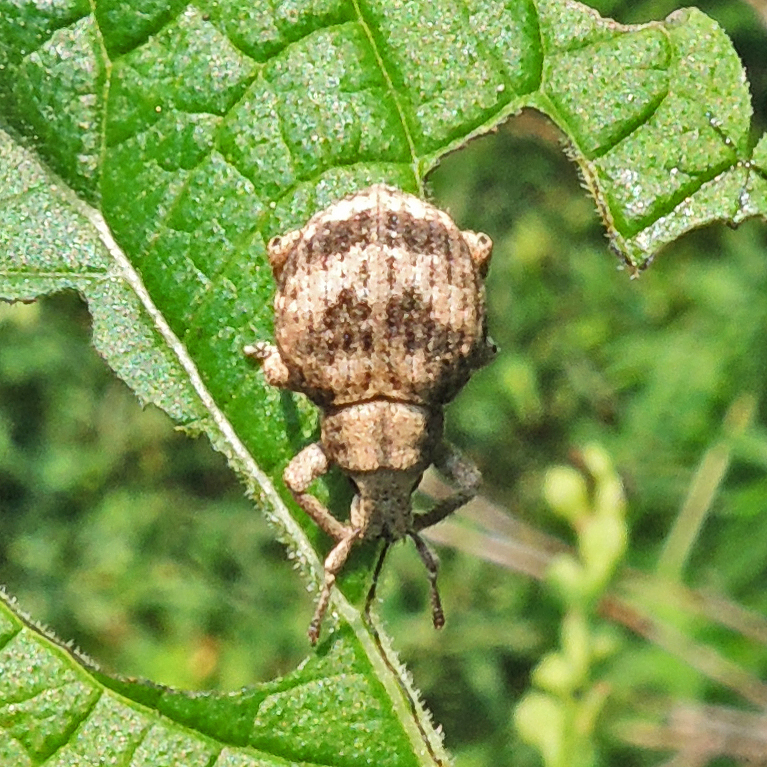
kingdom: Animalia
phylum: Arthropoda
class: Insecta
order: Coleoptera
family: Curculionidae
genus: Pseudocneorhinus
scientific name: Pseudocneorhinus bifasciatus
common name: Two-banded japanese weevil
